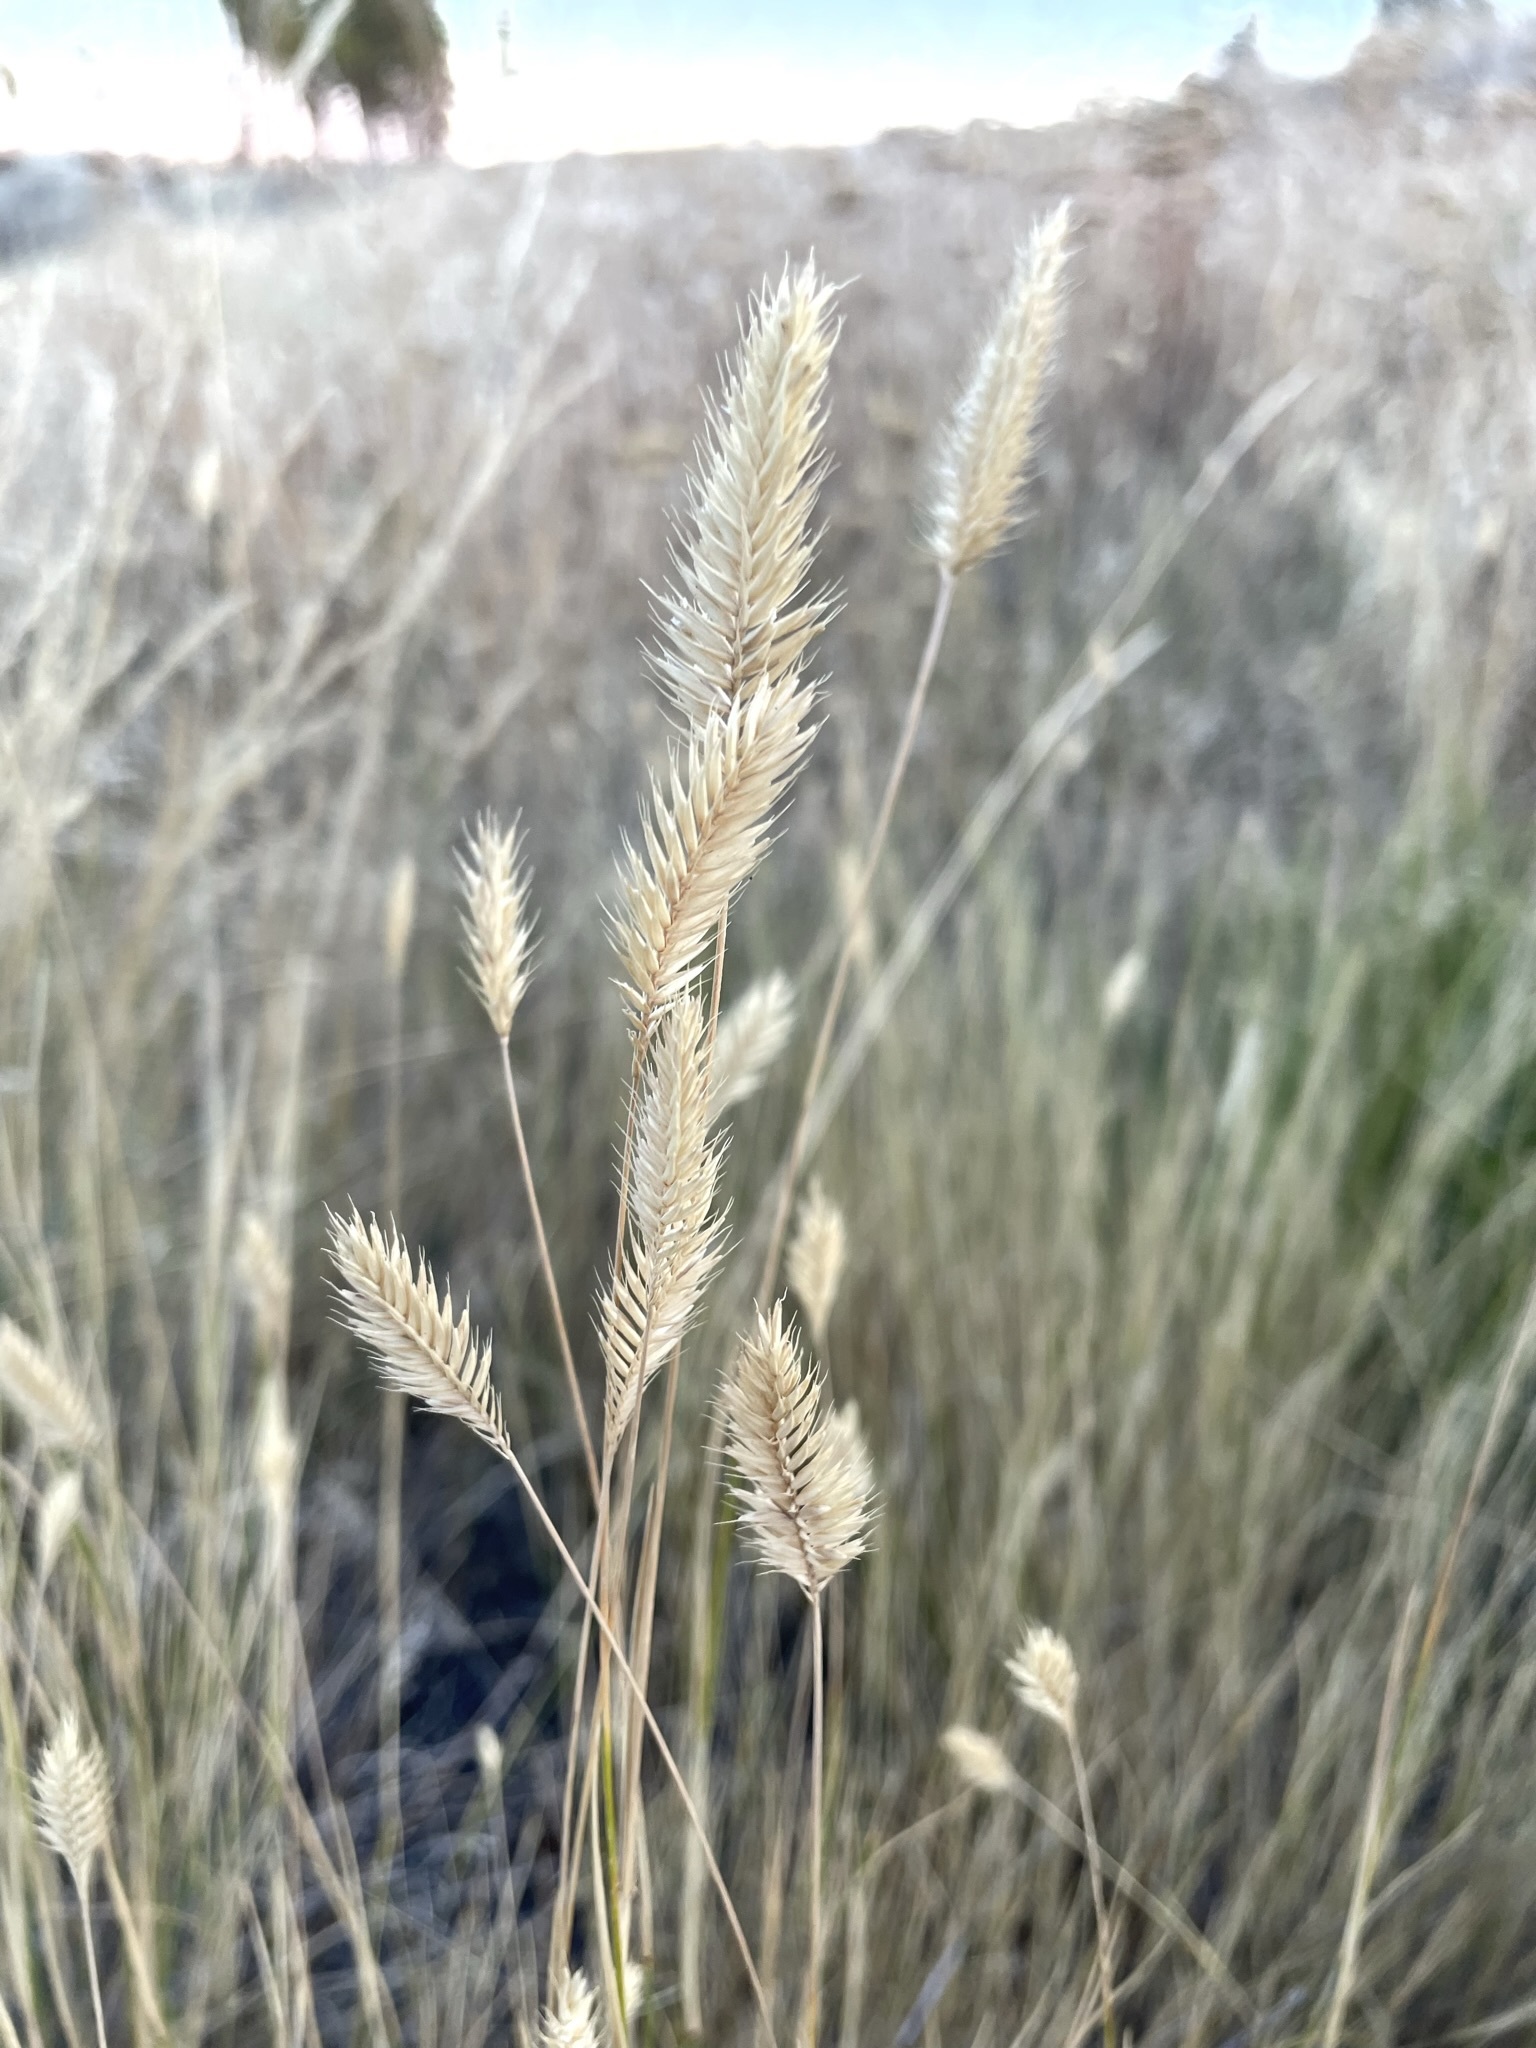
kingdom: Plantae
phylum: Tracheophyta
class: Liliopsida
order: Poales
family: Poaceae
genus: Agropyron
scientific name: Agropyron cristatum
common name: Crested wheatgrass
